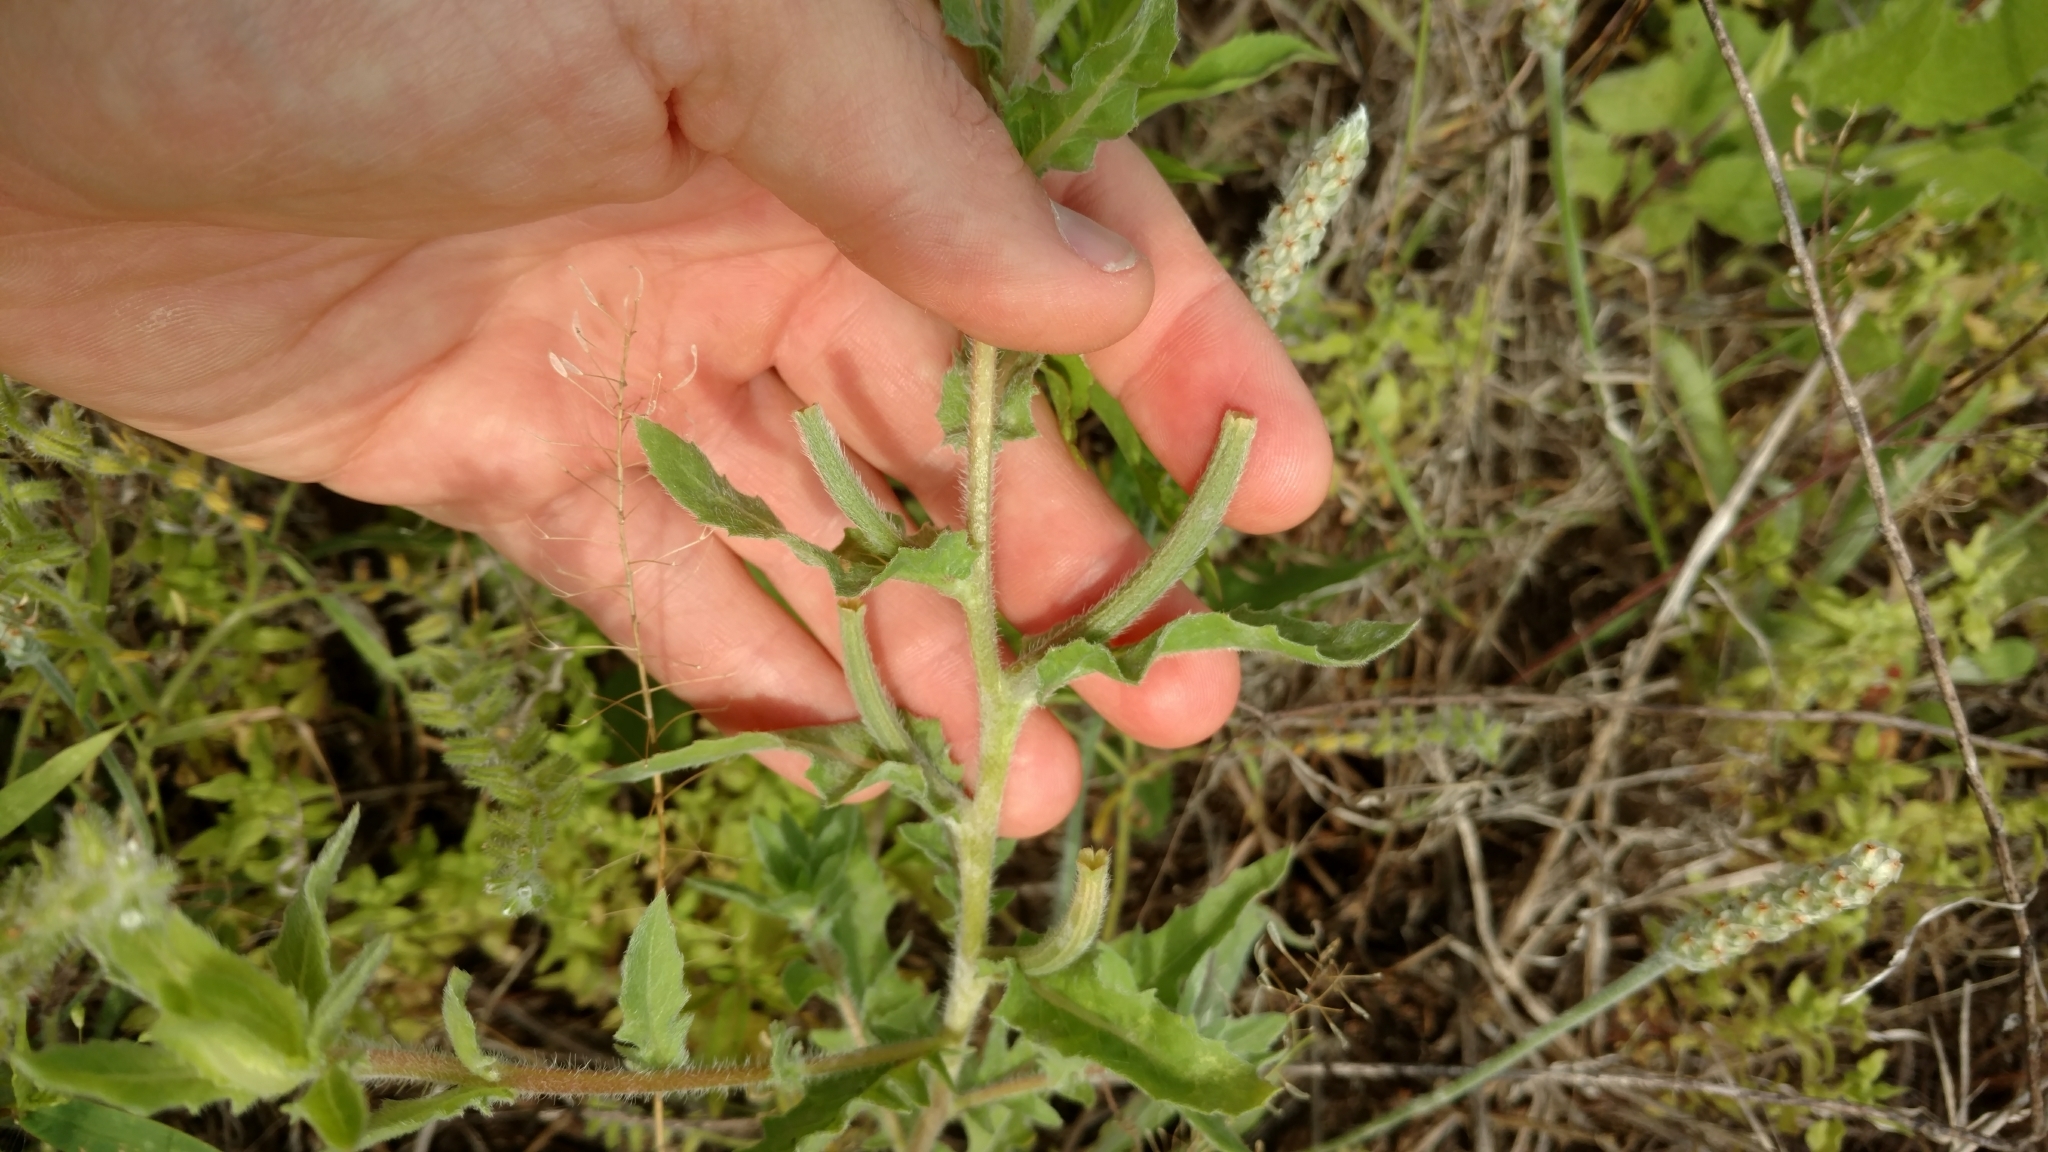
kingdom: Plantae
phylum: Tracheophyta
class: Magnoliopsida
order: Myrtales
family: Onagraceae
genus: Oenothera
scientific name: Oenothera laciniata
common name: Cut-leaved evening-primrose
